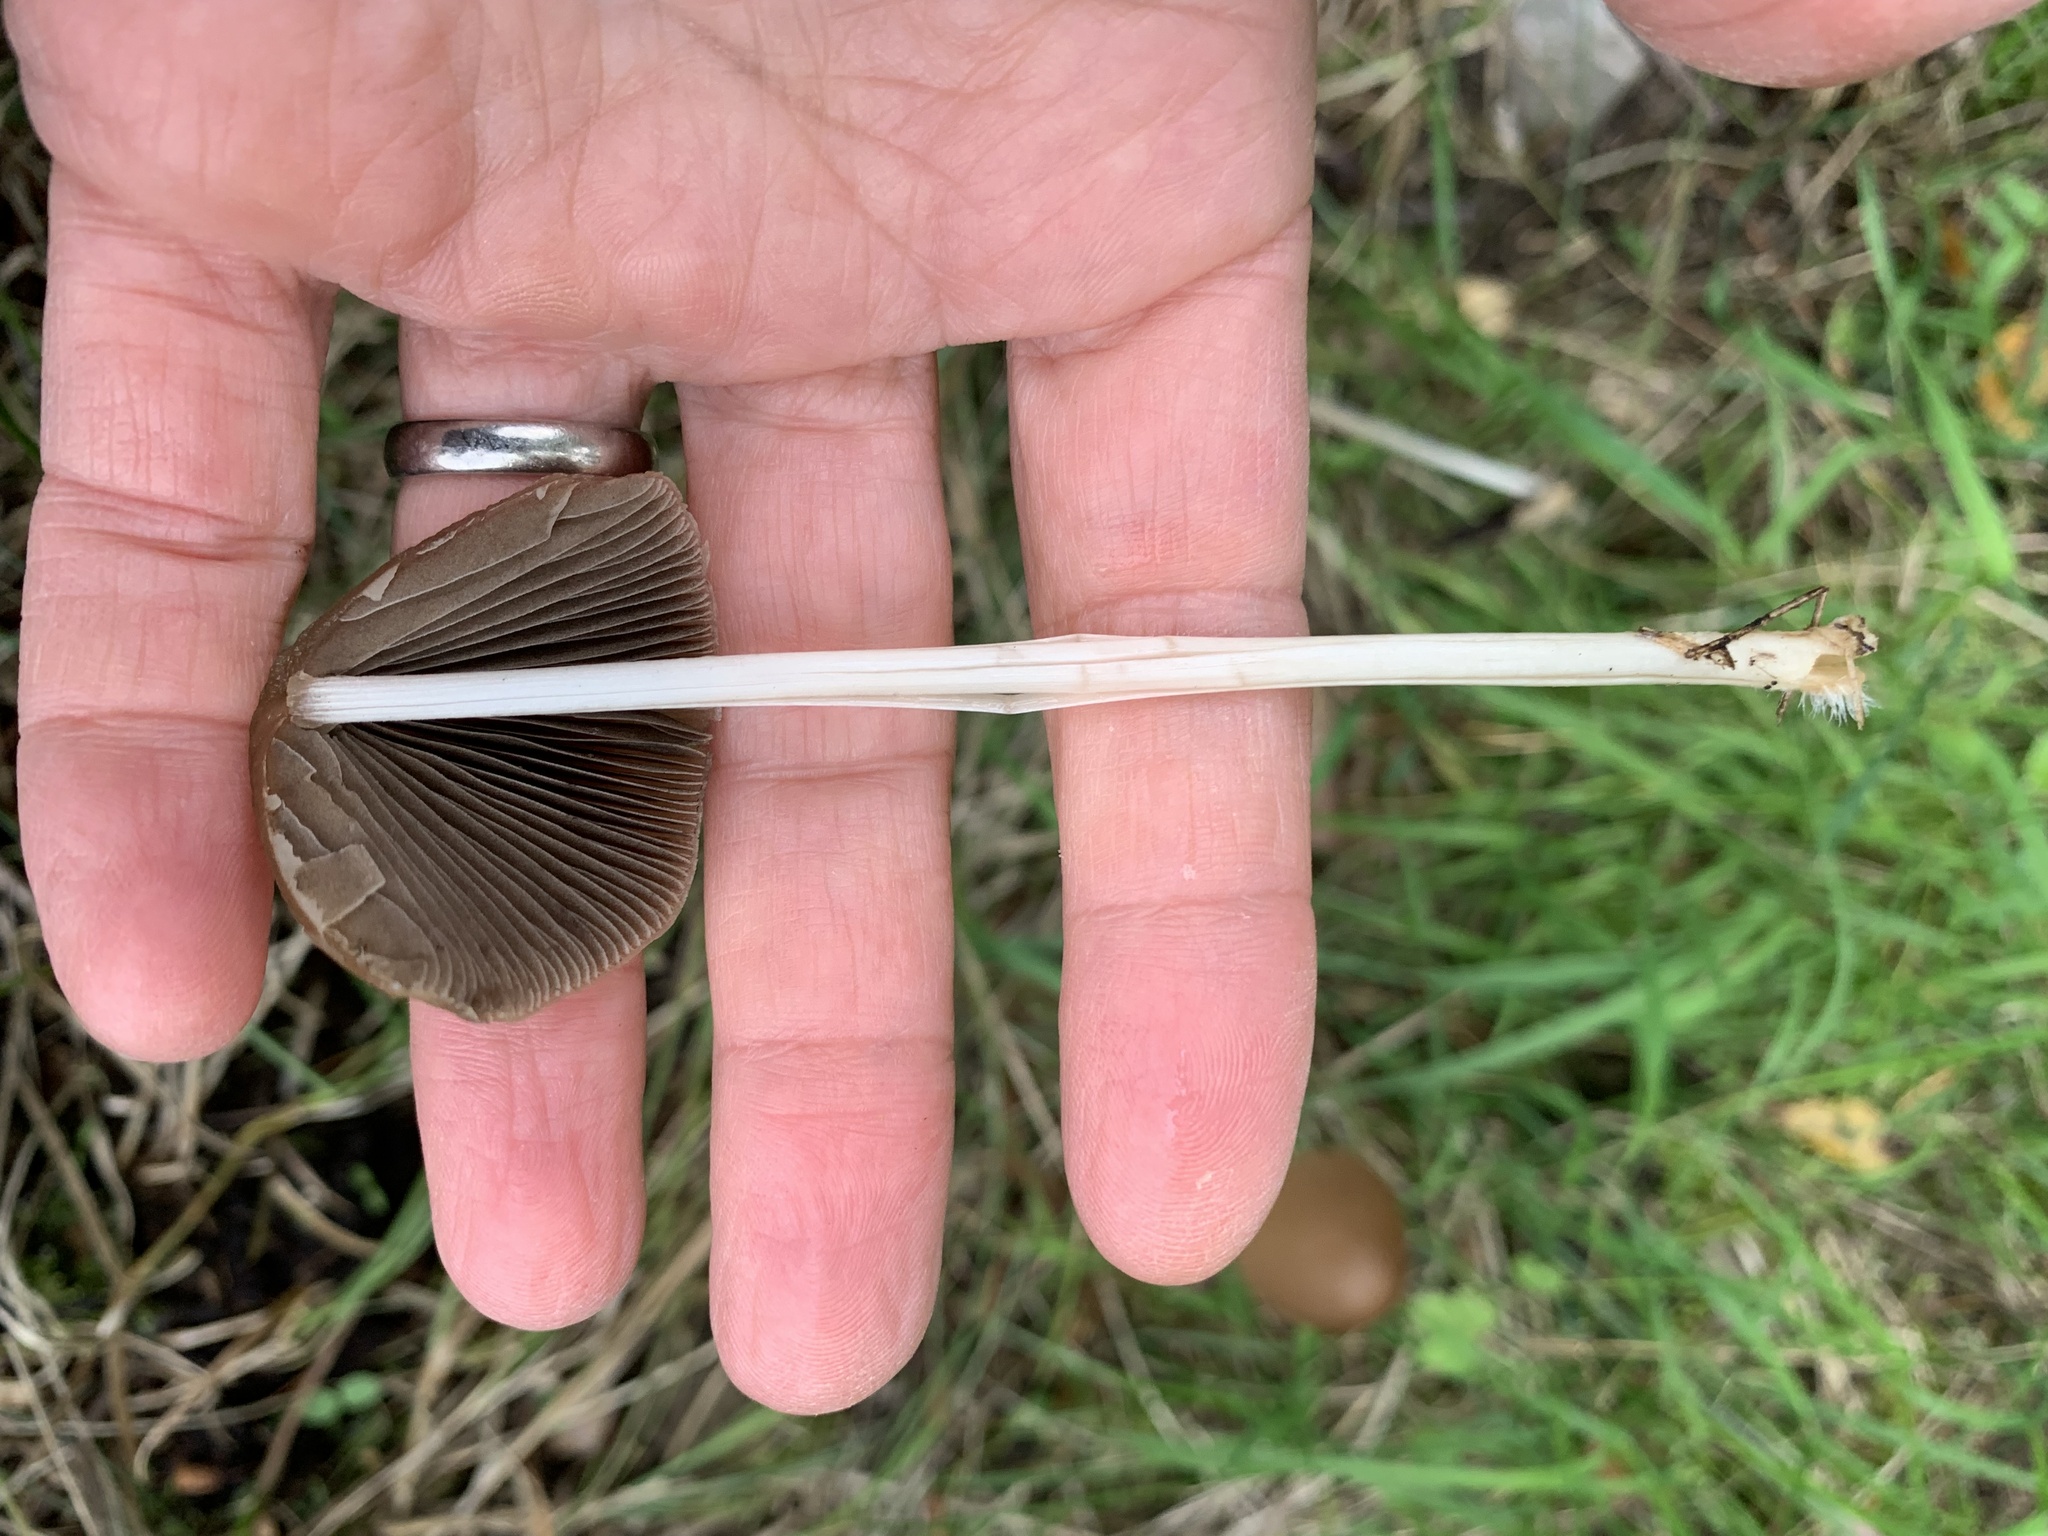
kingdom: Fungi
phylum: Basidiomycota
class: Agaricomycetes
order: Agaricales
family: Psathyrellaceae
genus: Parasola
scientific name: Parasola conopilea
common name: Conical brittlestem
